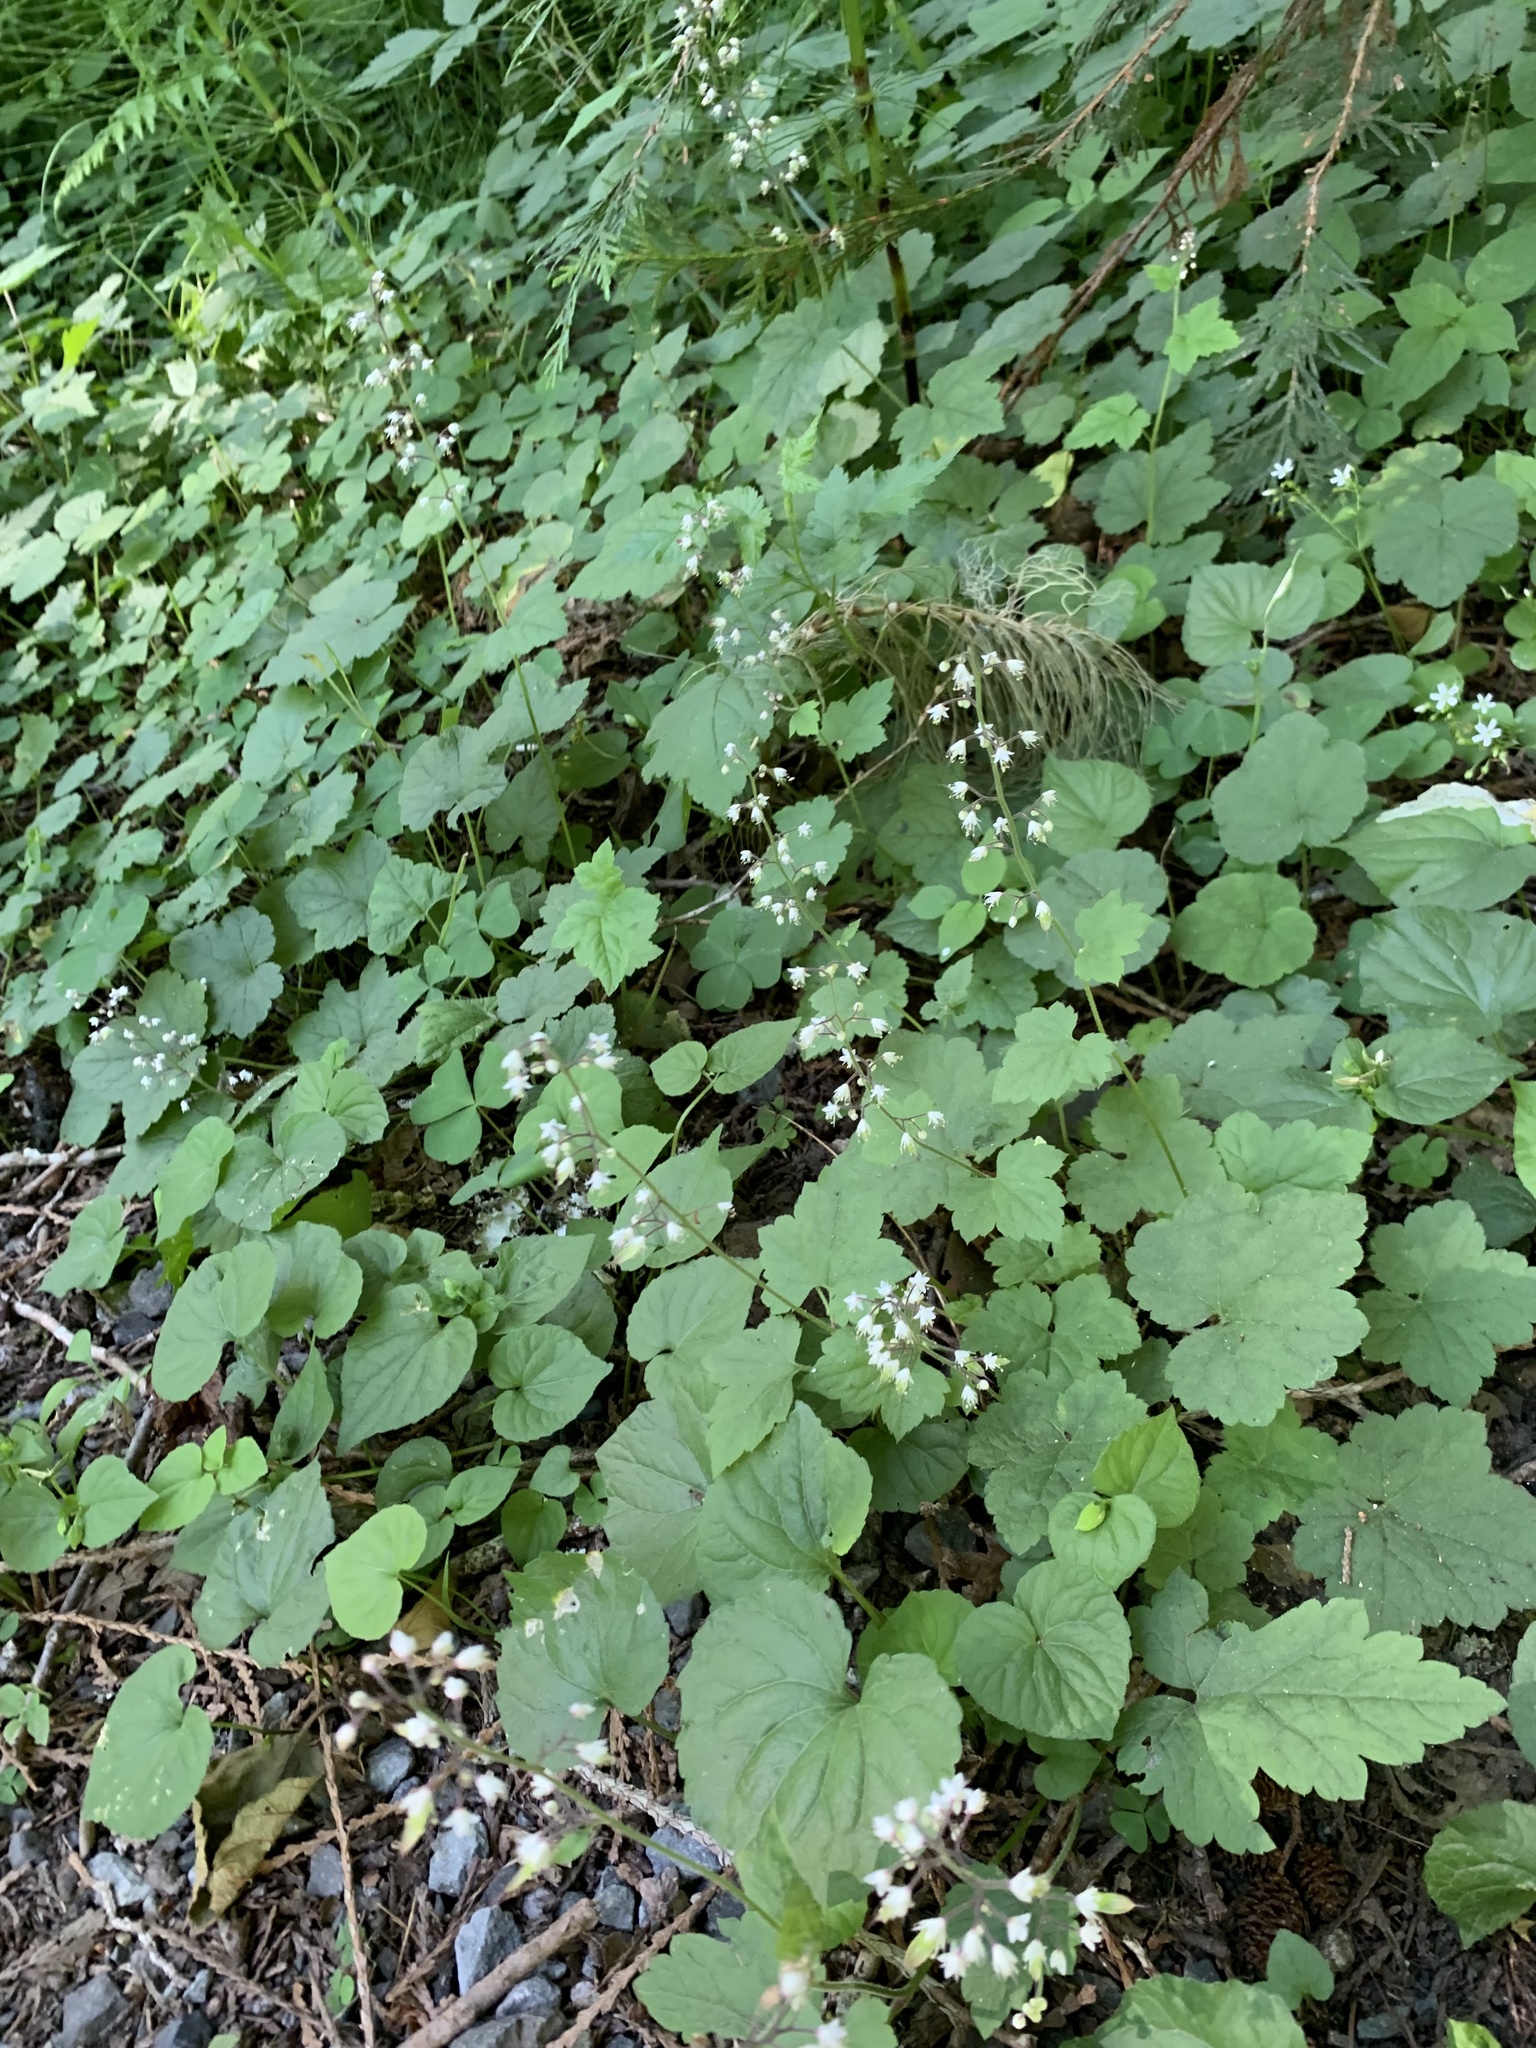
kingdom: Plantae
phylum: Tracheophyta
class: Magnoliopsida
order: Saxifragales
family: Saxifragaceae
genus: Tiarella
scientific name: Tiarella trifoliata
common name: Sugar-scoop
